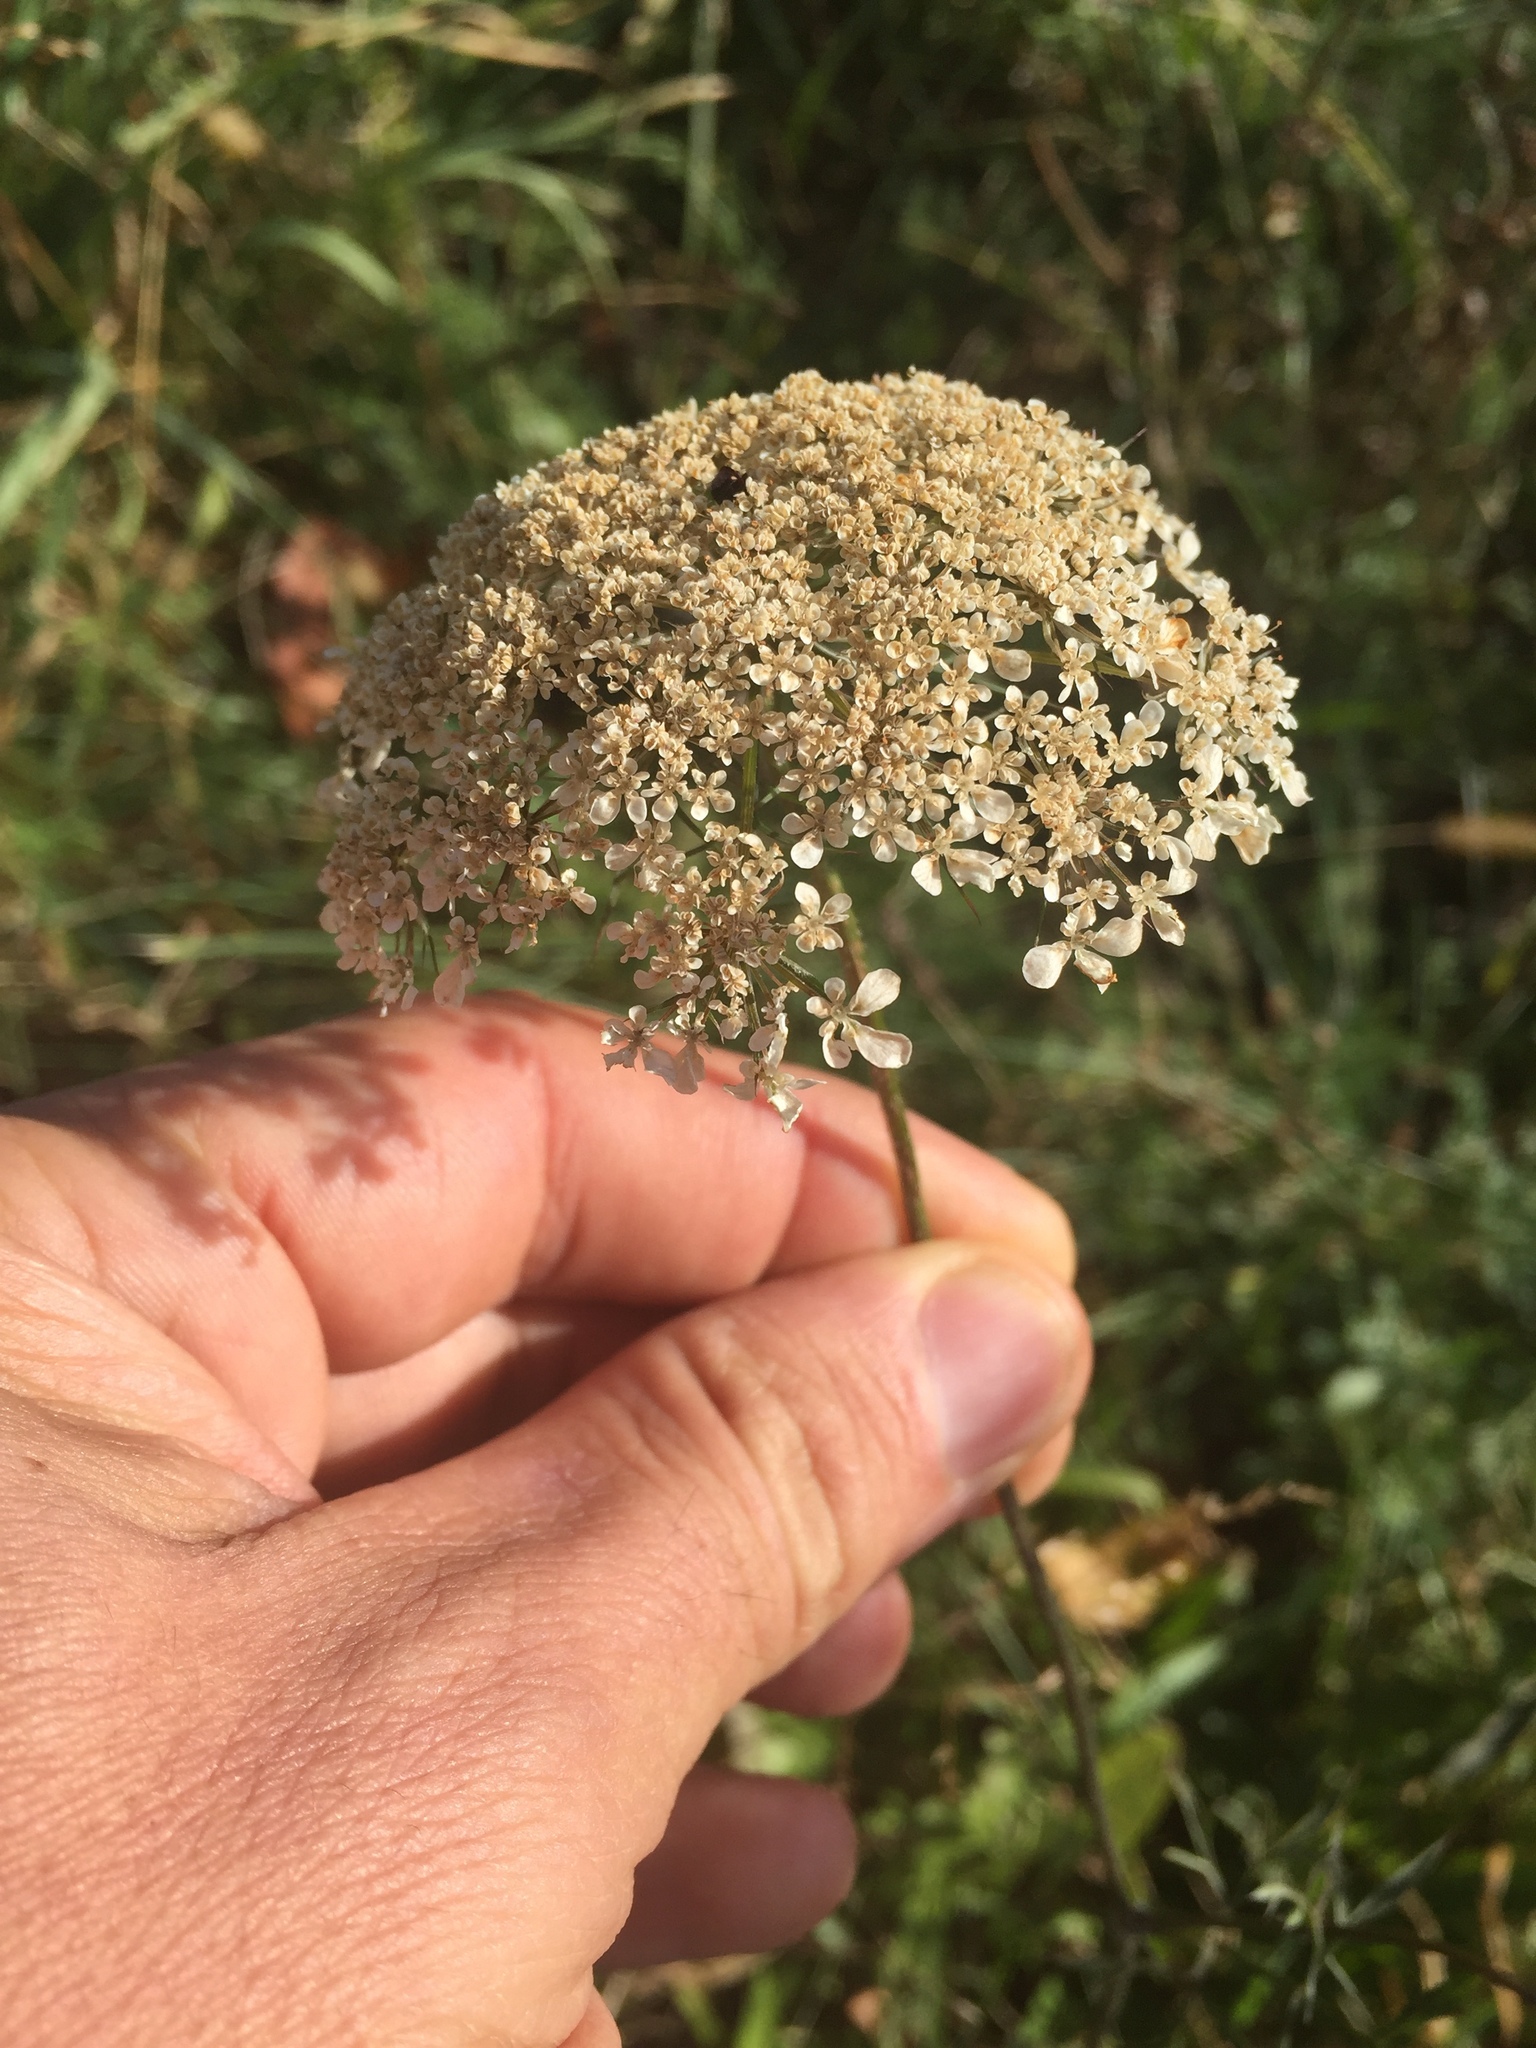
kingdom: Plantae
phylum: Tracheophyta
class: Magnoliopsida
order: Apiales
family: Apiaceae
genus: Daucus
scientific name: Daucus carota
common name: Wild carrot
